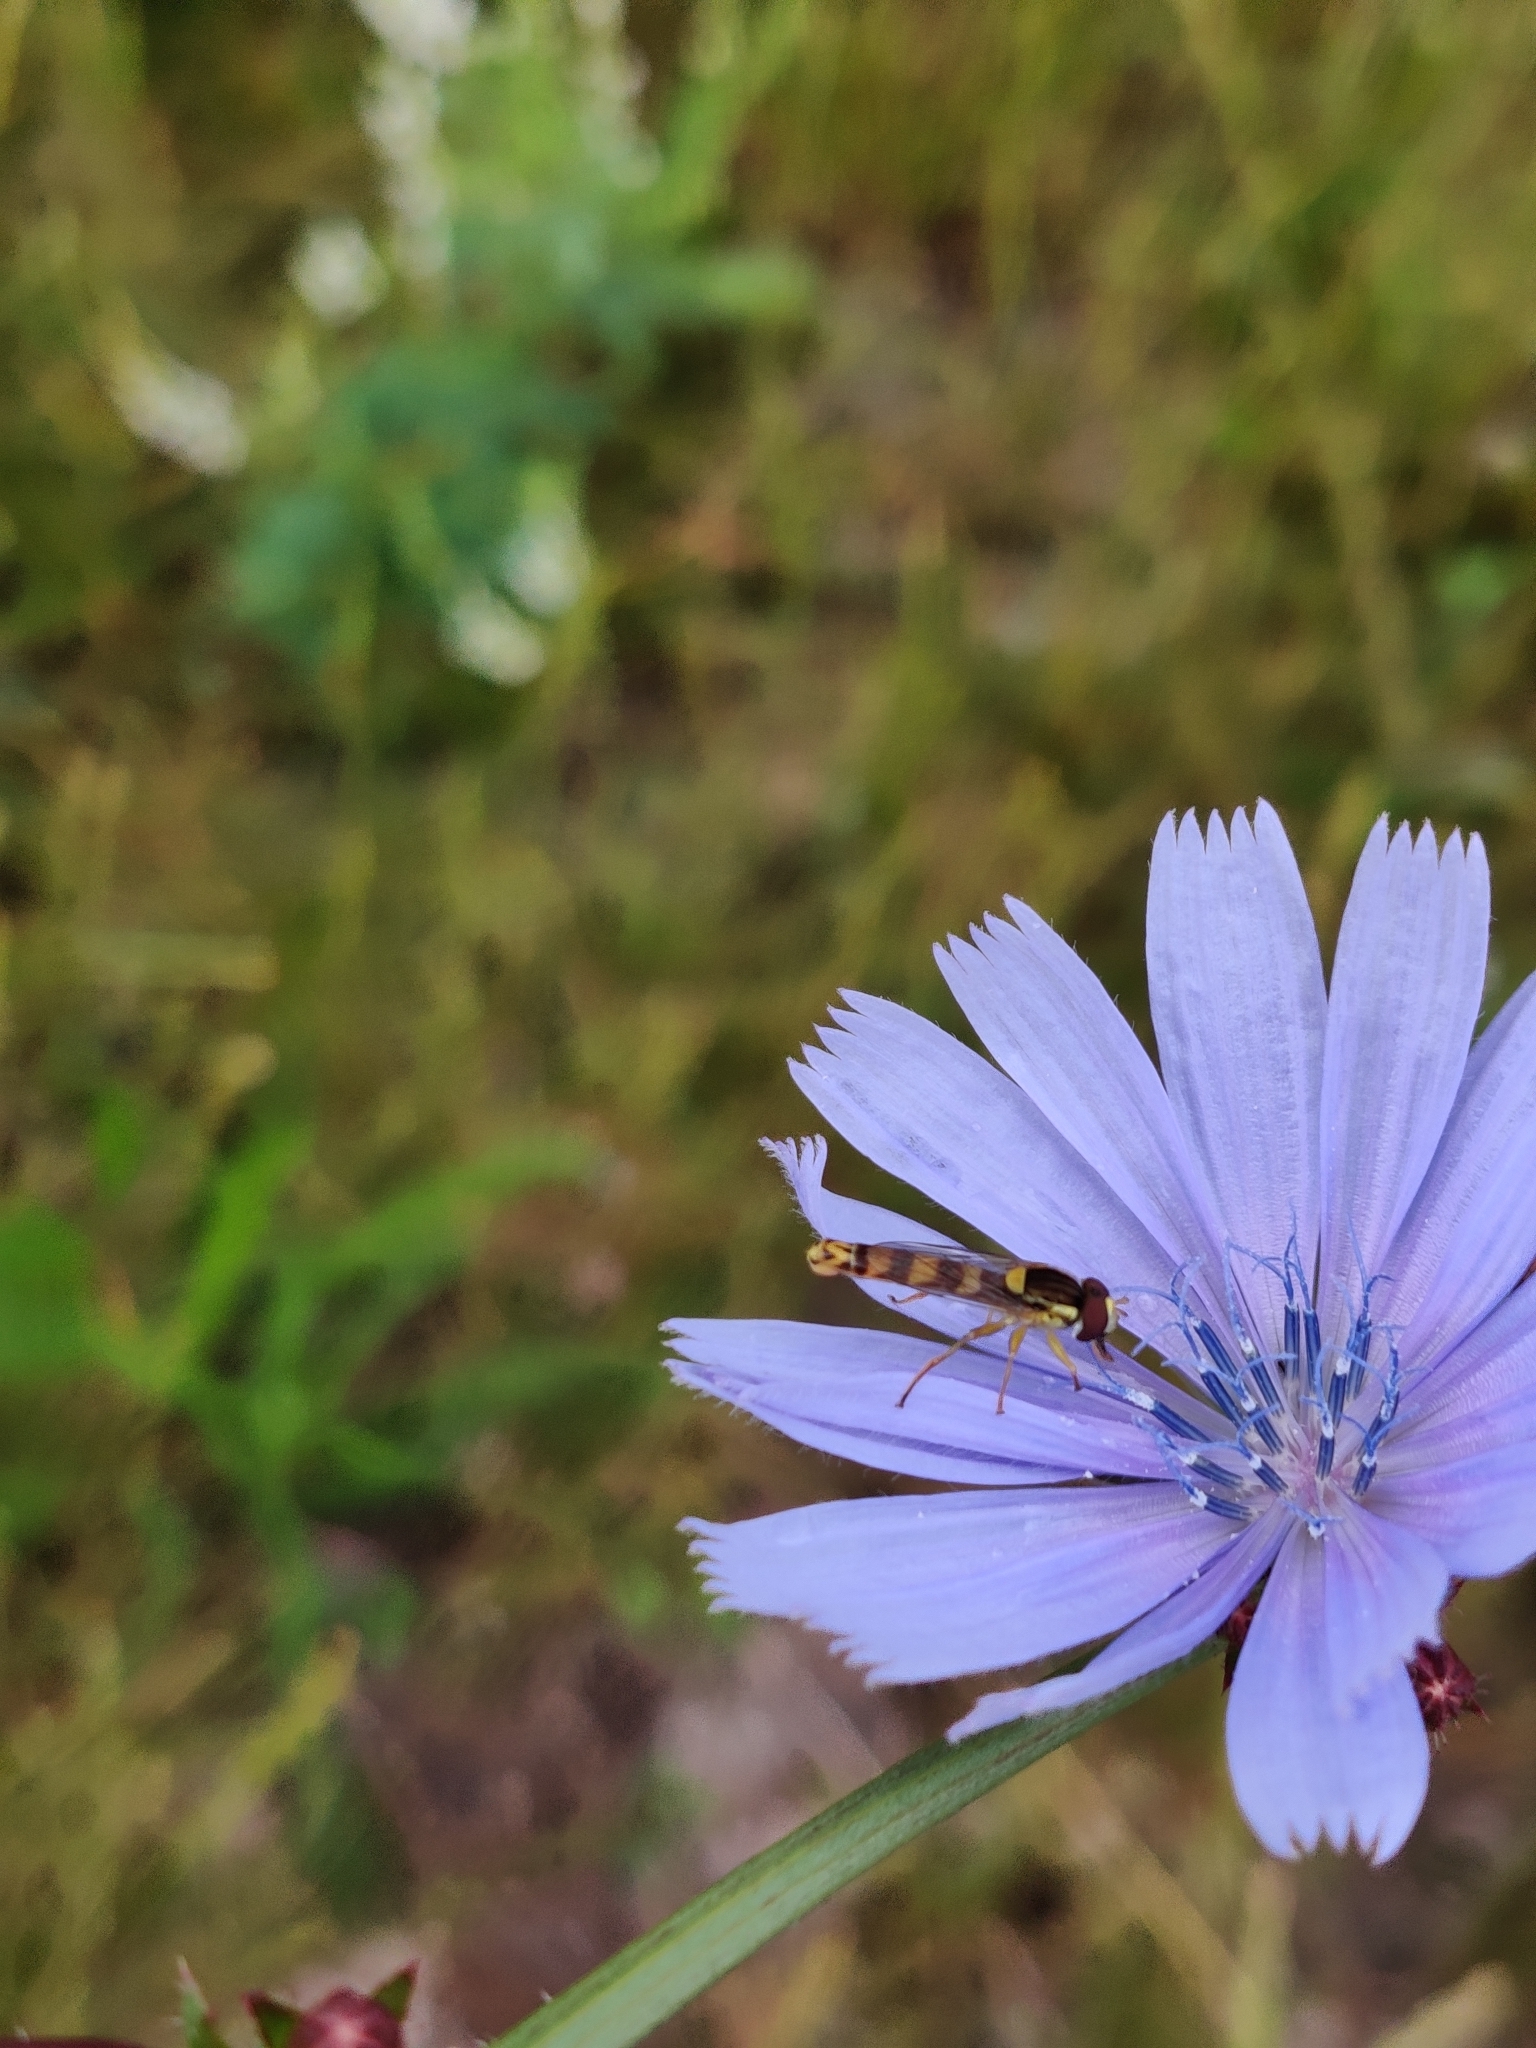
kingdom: Animalia
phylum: Arthropoda
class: Insecta
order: Diptera
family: Syrphidae
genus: Sphaerophoria
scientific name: Sphaerophoria scripta
